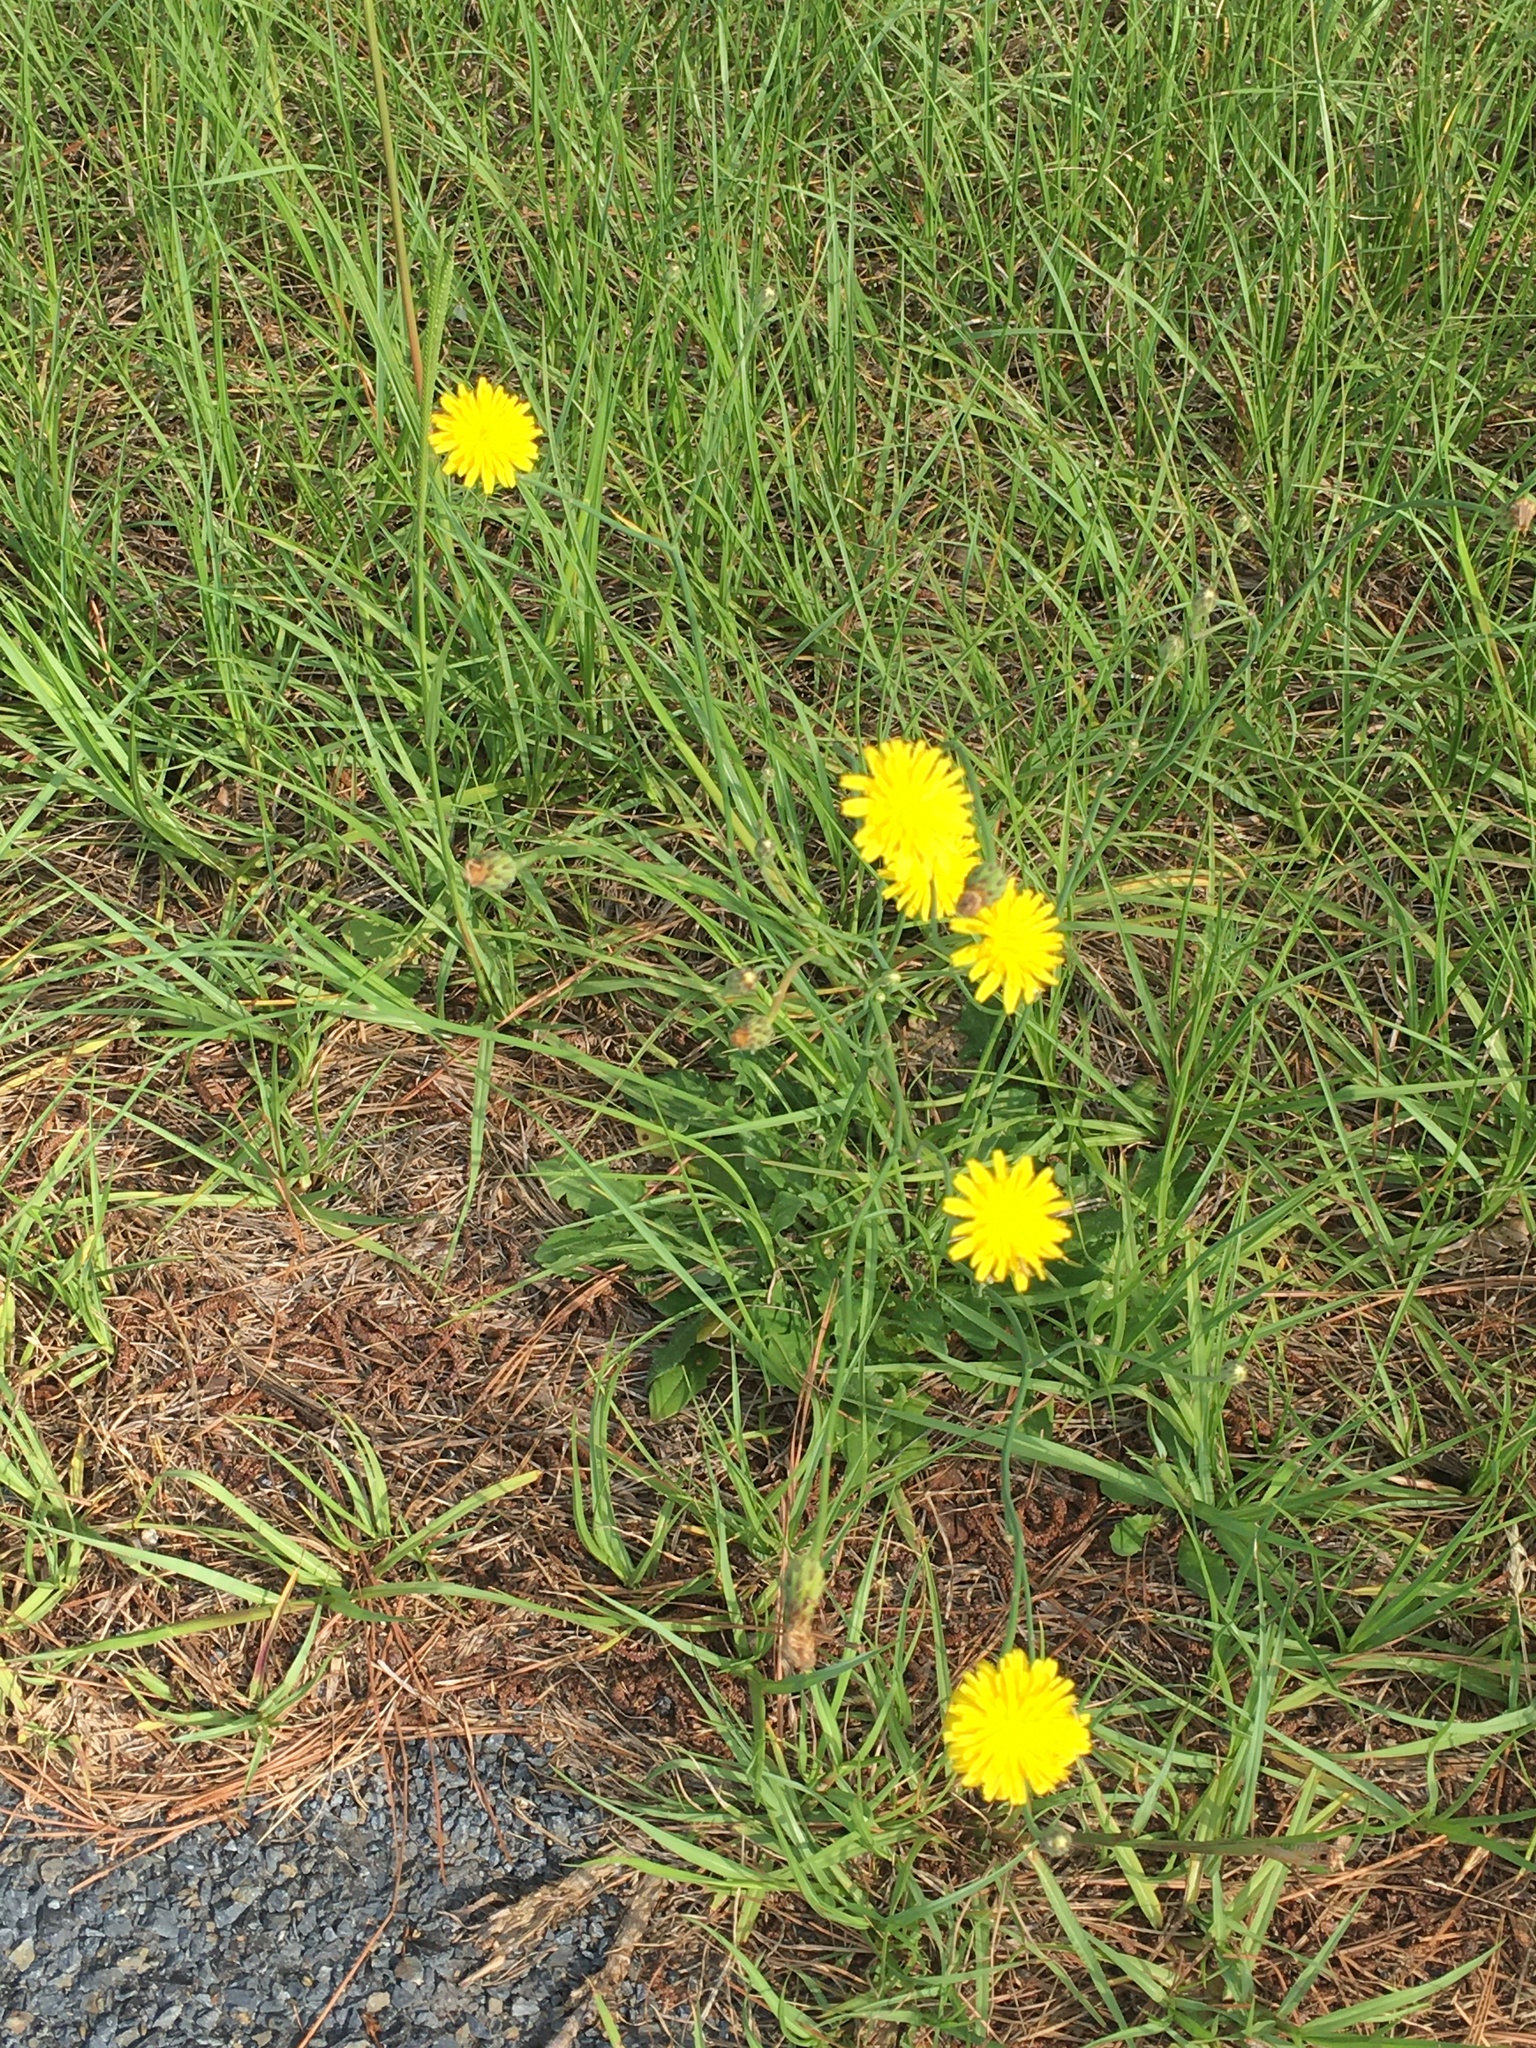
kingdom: Plantae
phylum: Tracheophyta
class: Magnoliopsida
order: Asterales
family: Asteraceae
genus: Hypochaeris
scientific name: Hypochaeris radicata
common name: Flatweed
